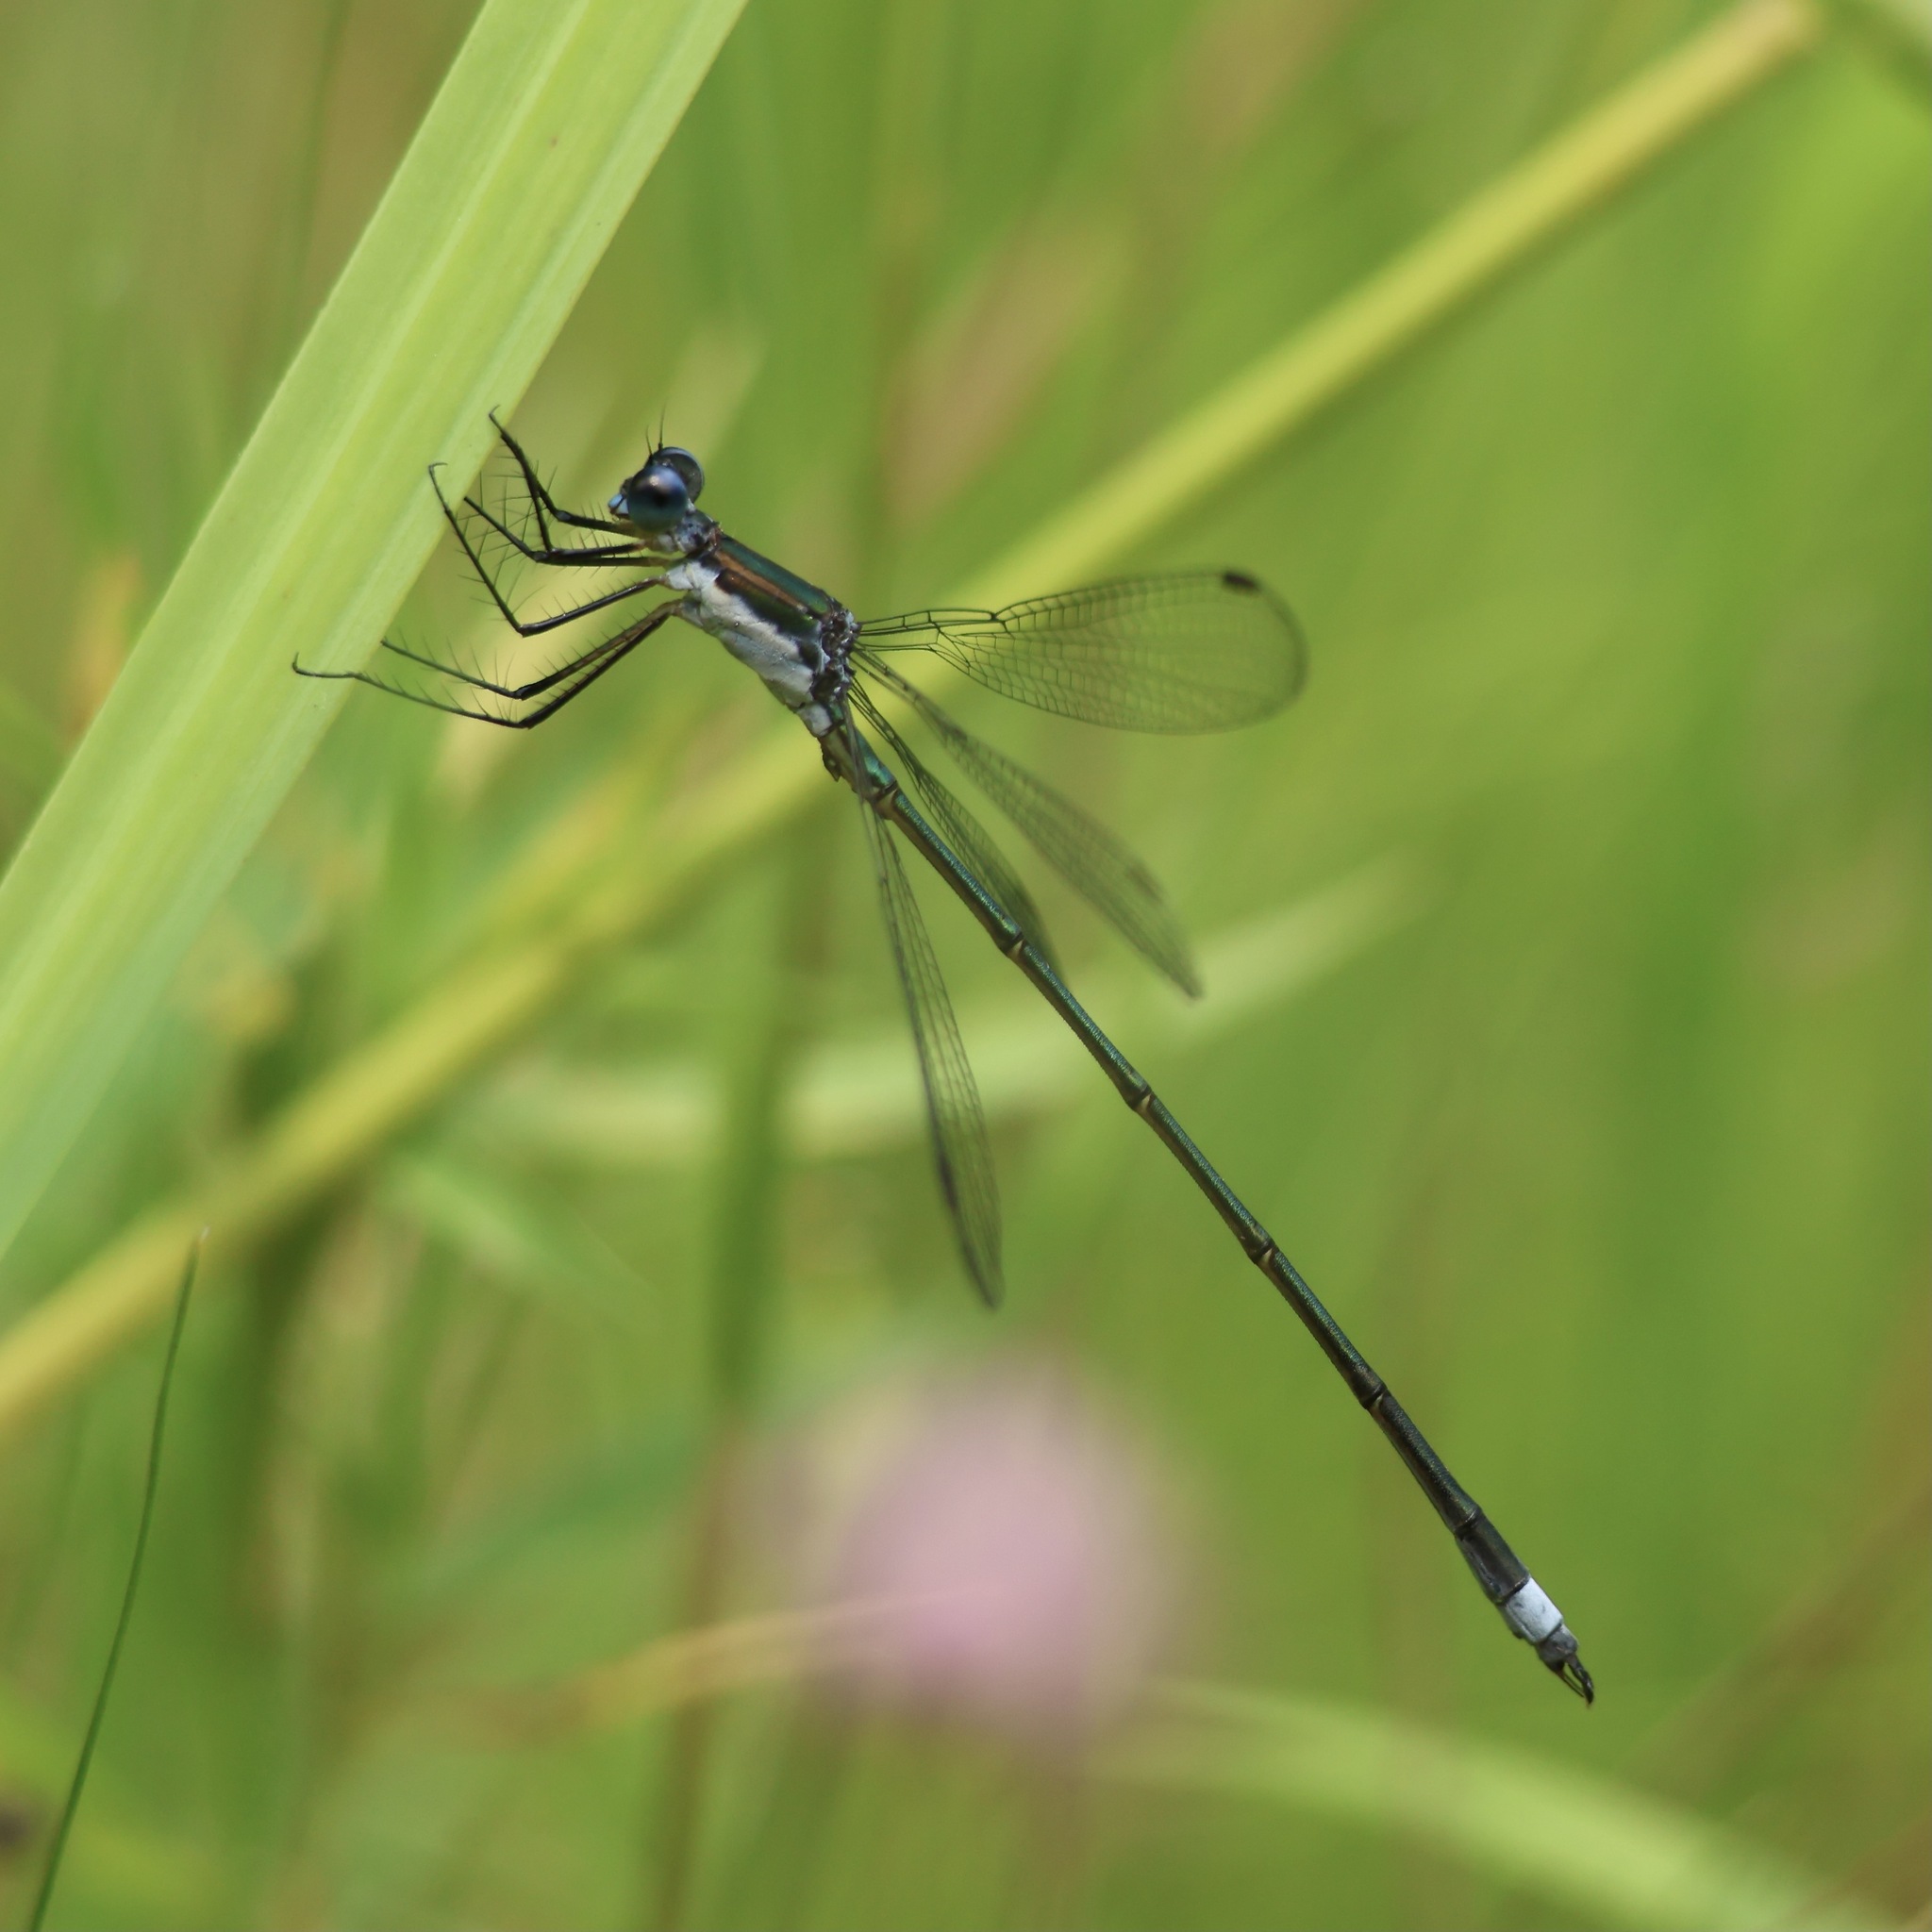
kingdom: Animalia
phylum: Arthropoda
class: Insecta
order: Odonata
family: Lestidae
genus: Lestes
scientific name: Lestes vigilax
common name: Swamp spreadwing
